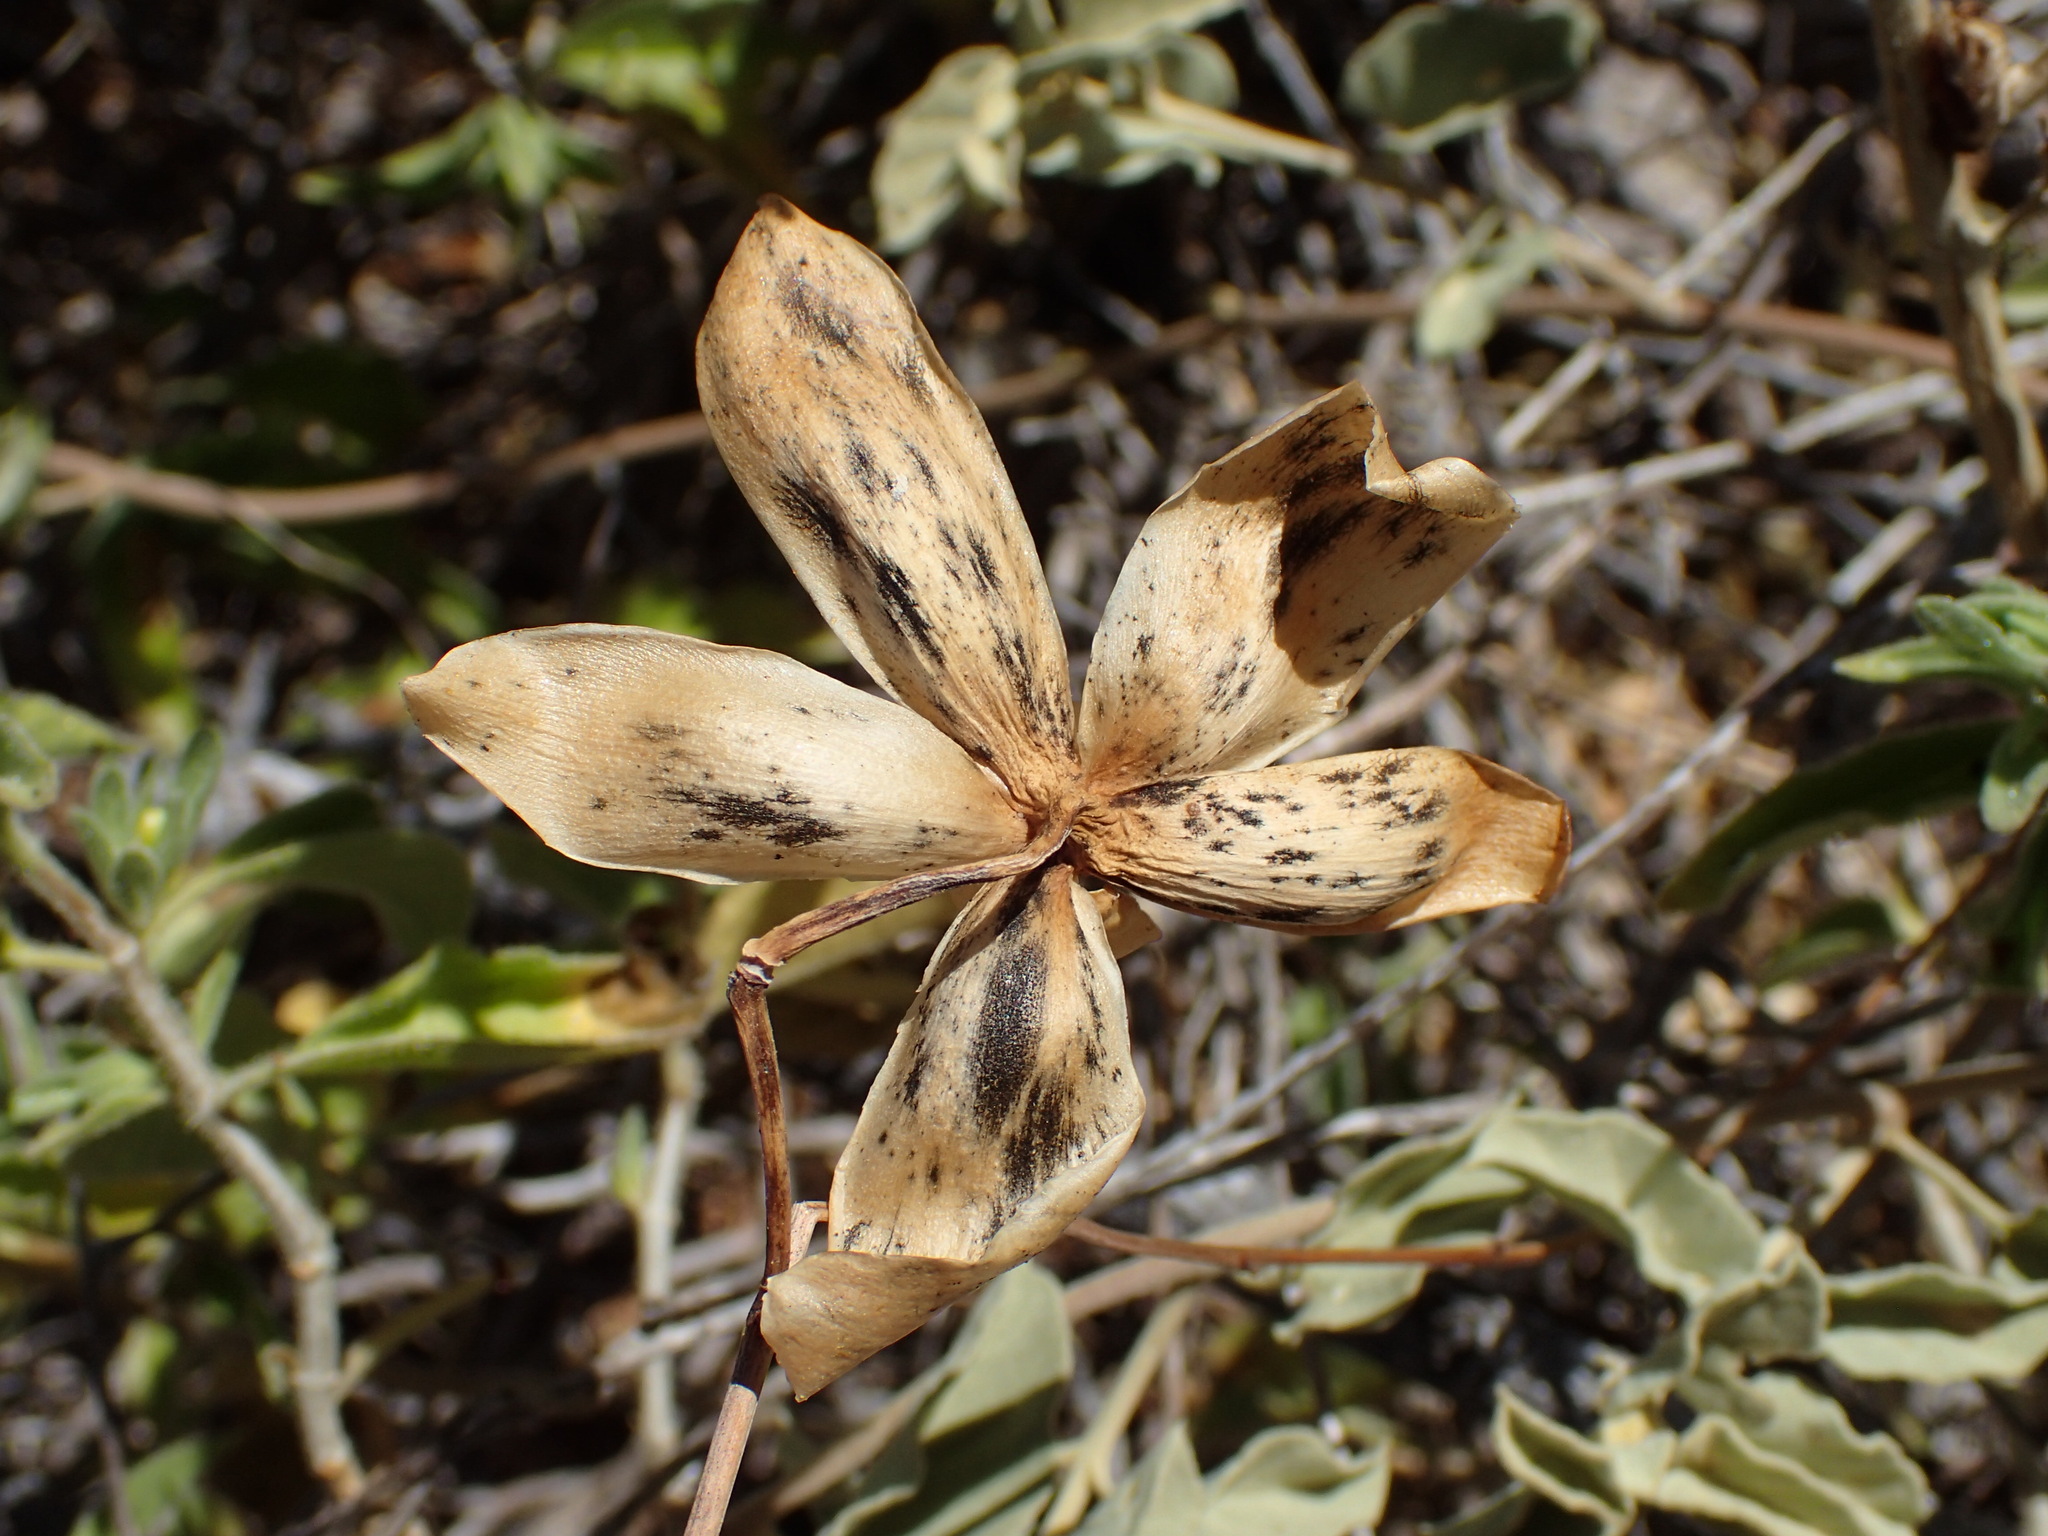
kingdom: Plantae
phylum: Tracheophyta
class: Magnoliopsida
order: Solanales
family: Convolvulaceae
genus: Distimake
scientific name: Distimake aureus
